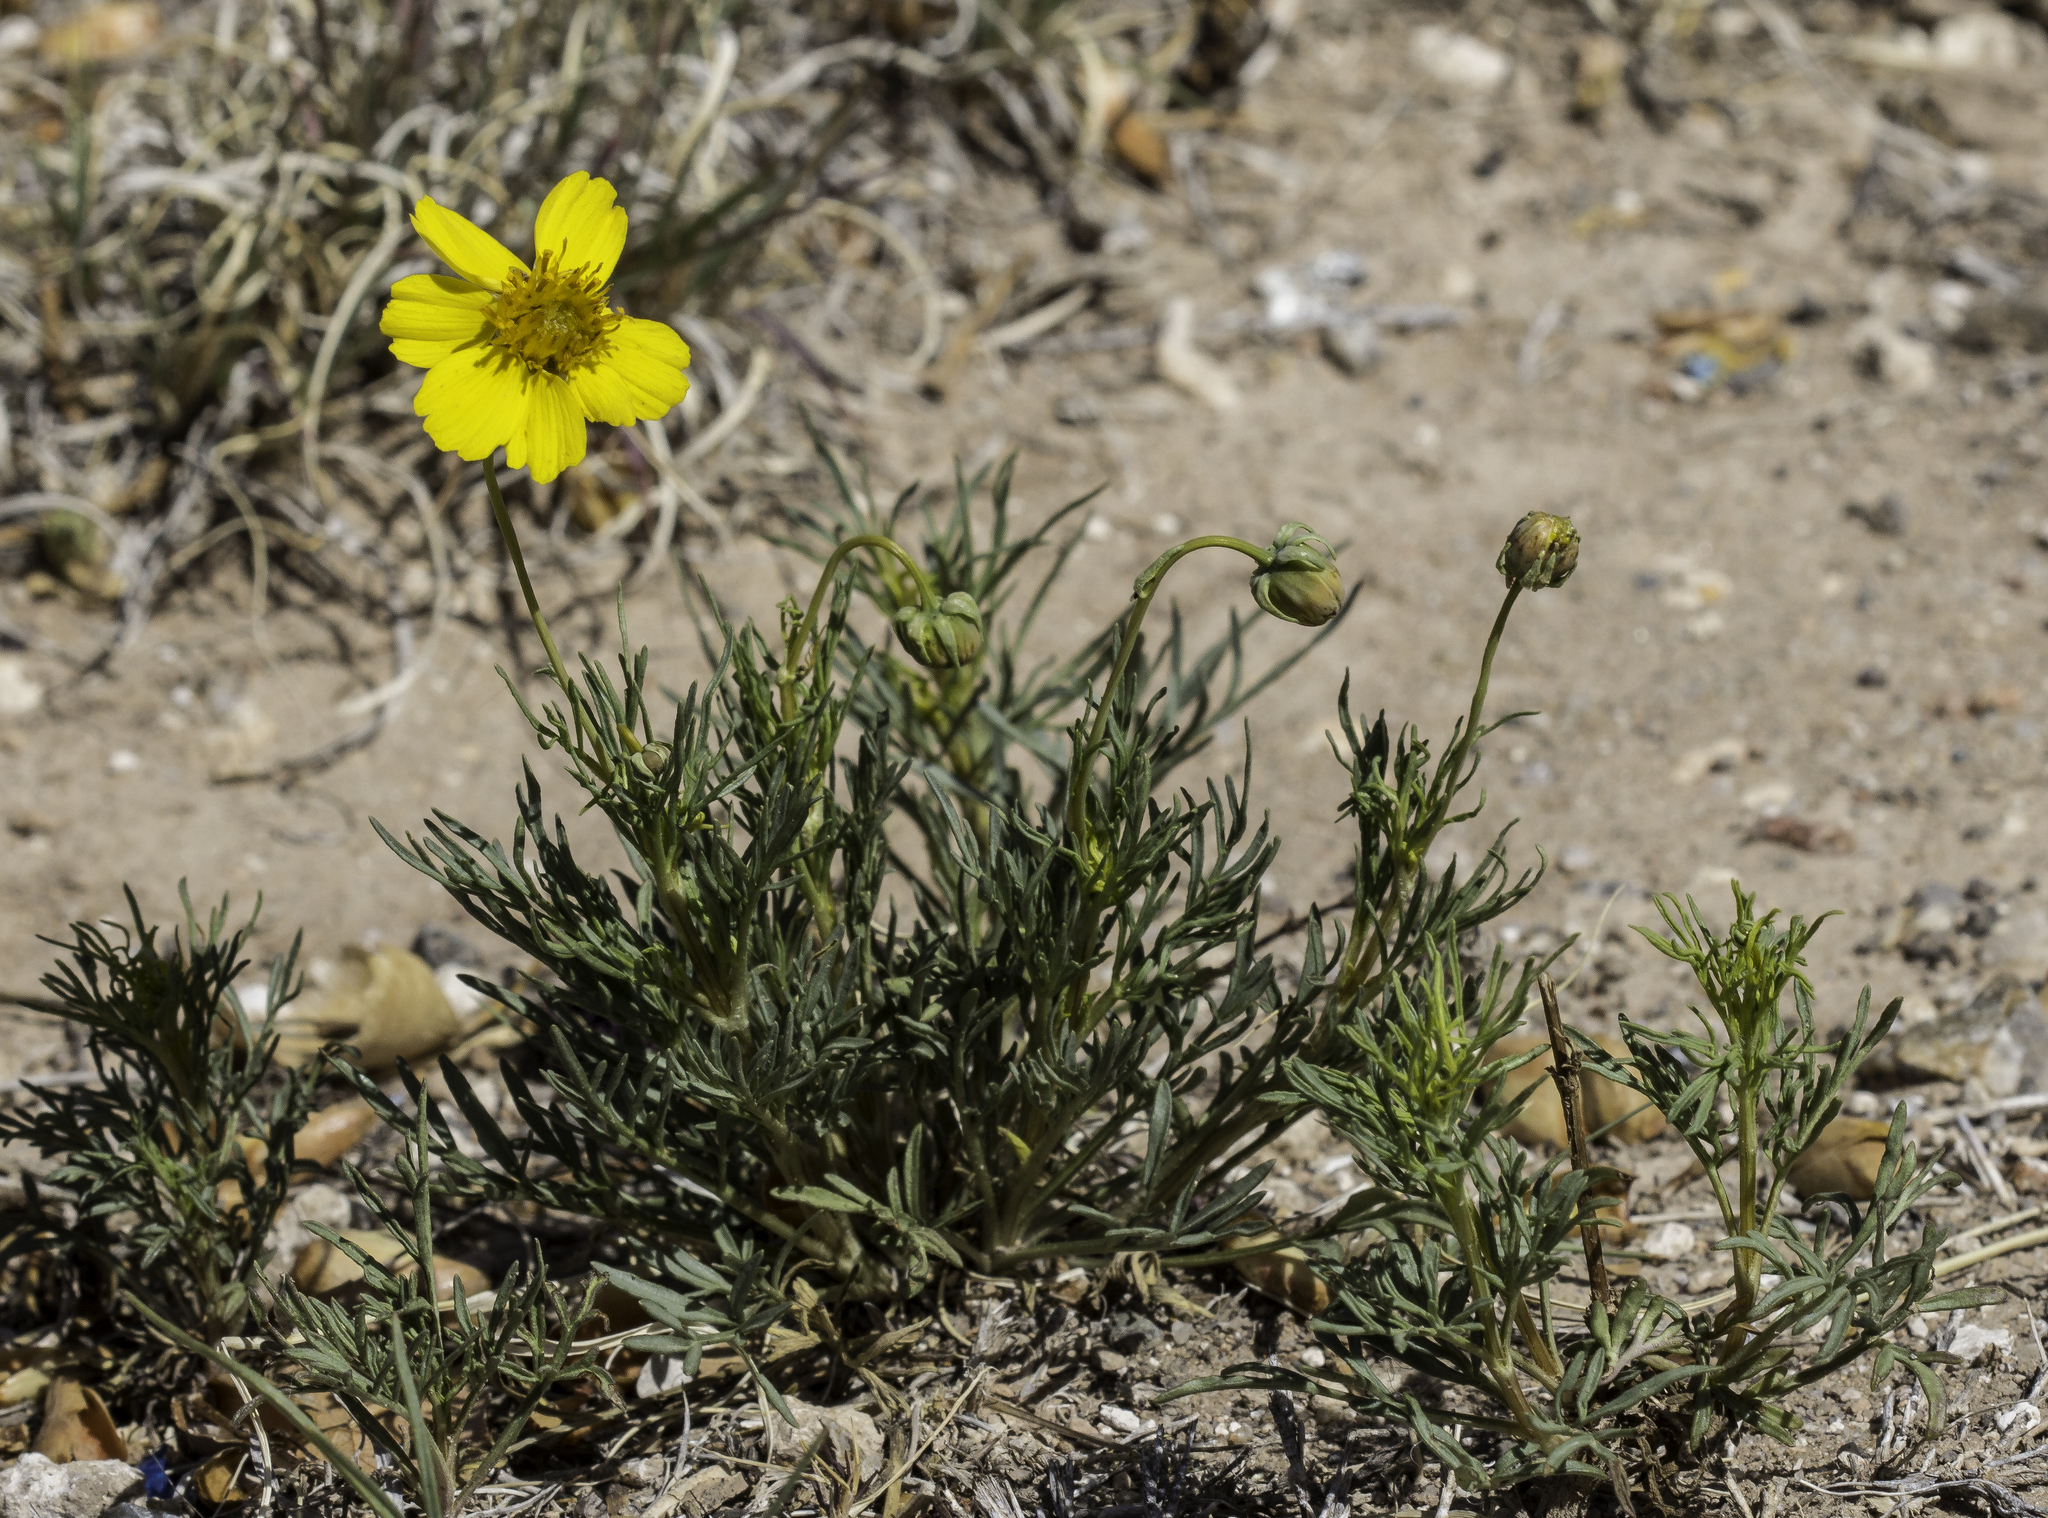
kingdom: Plantae
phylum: Tracheophyta
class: Magnoliopsida
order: Asterales
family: Asteraceae
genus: Thelesperma
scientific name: Thelesperma filifolium
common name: Stiff greenthread
